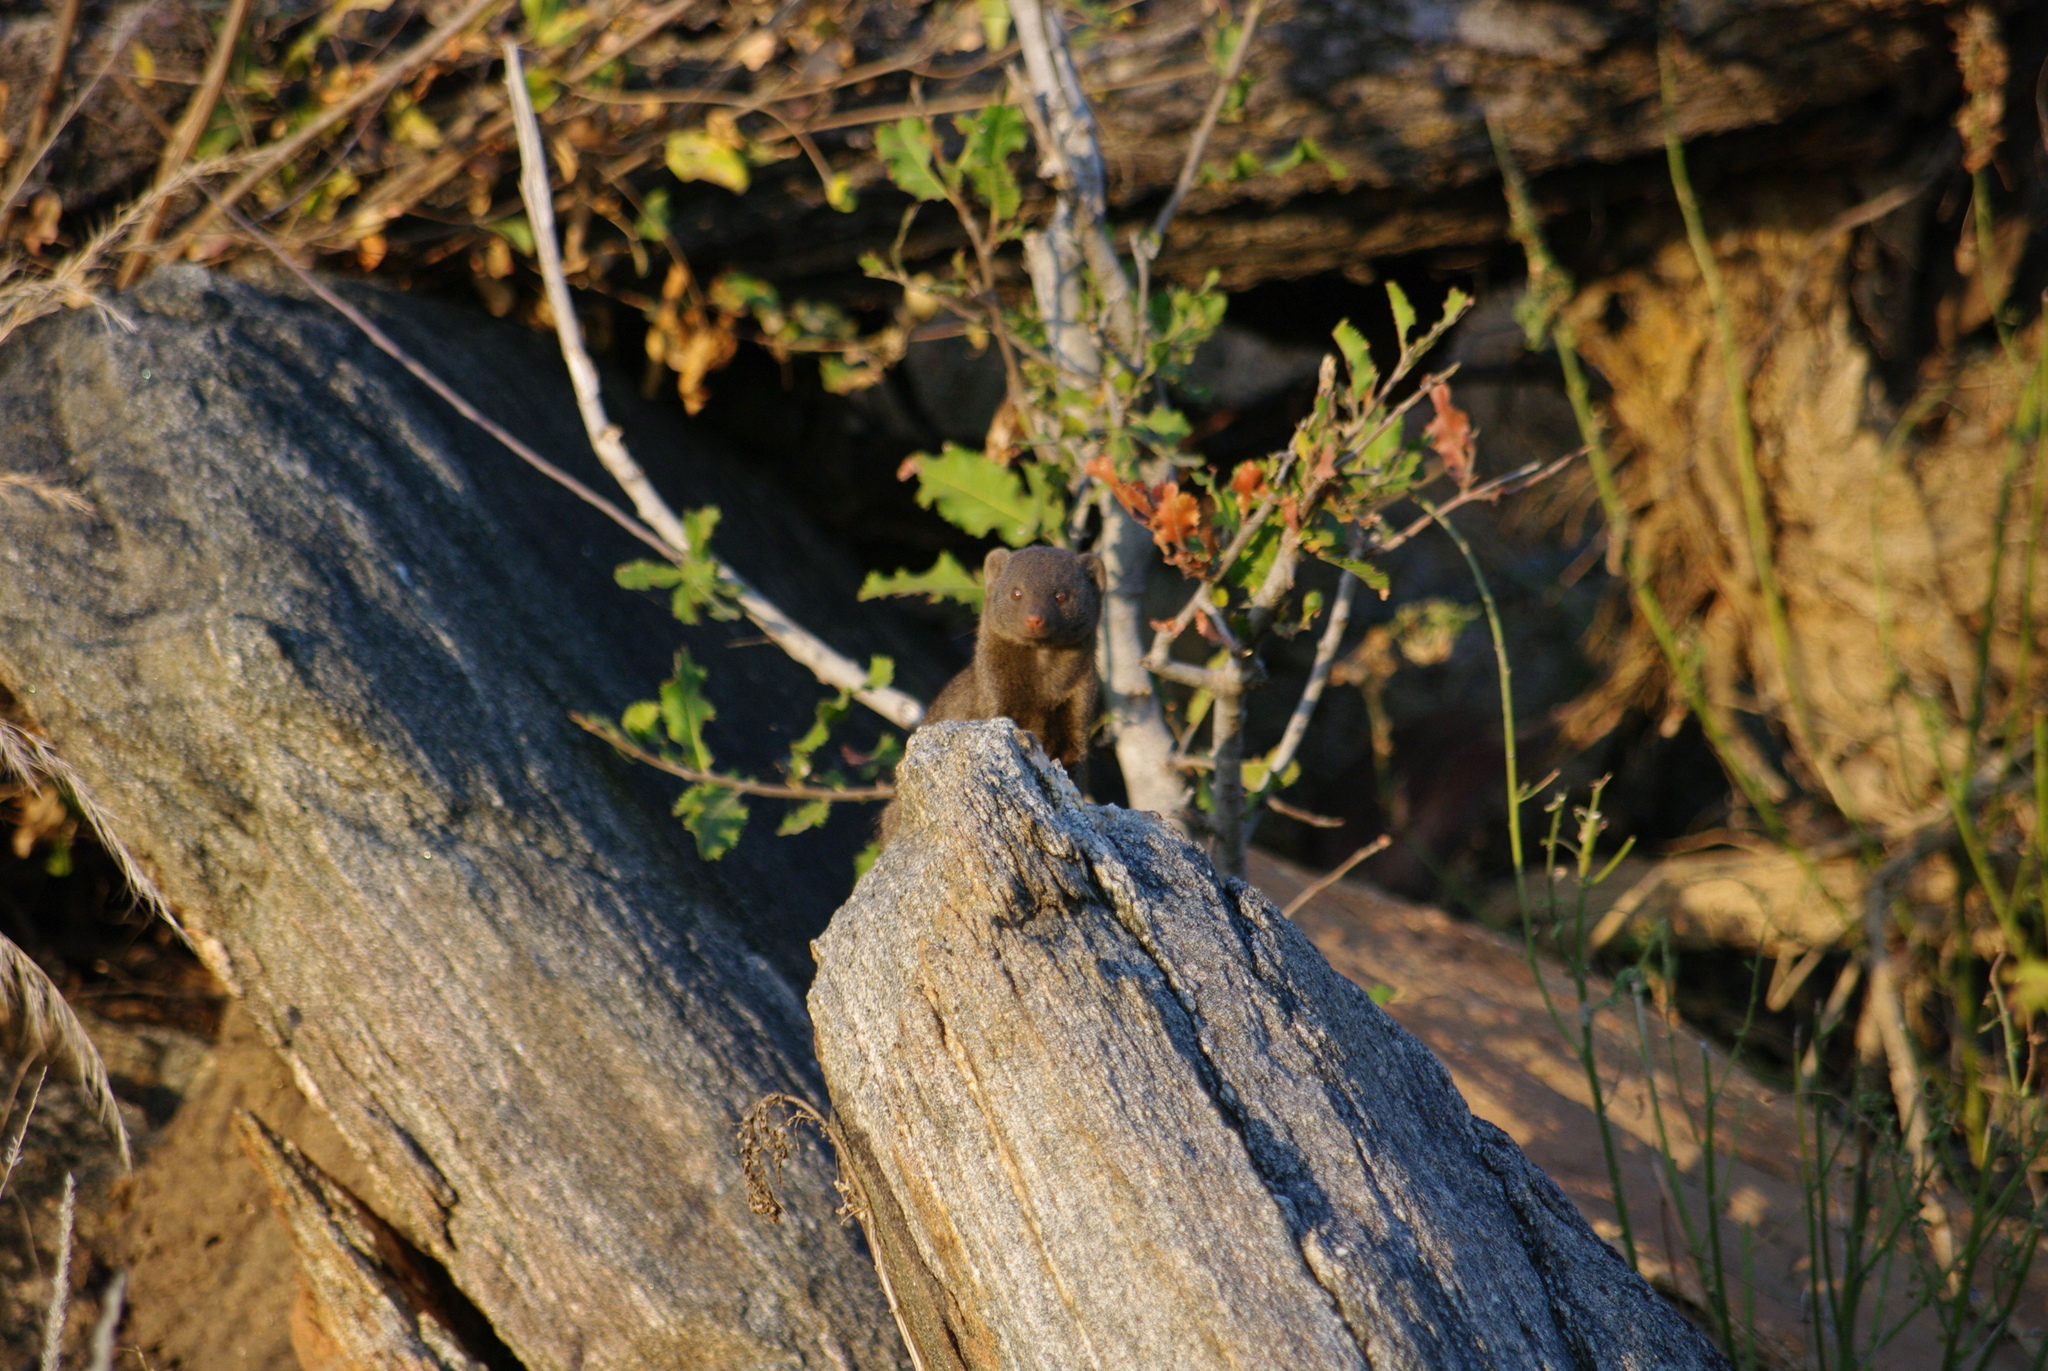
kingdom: Animalia
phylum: Chordata
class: Mammalia
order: Carnivora
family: Herpestidae
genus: Helogale
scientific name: Helogale parvula
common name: Common dwarf mongoose
